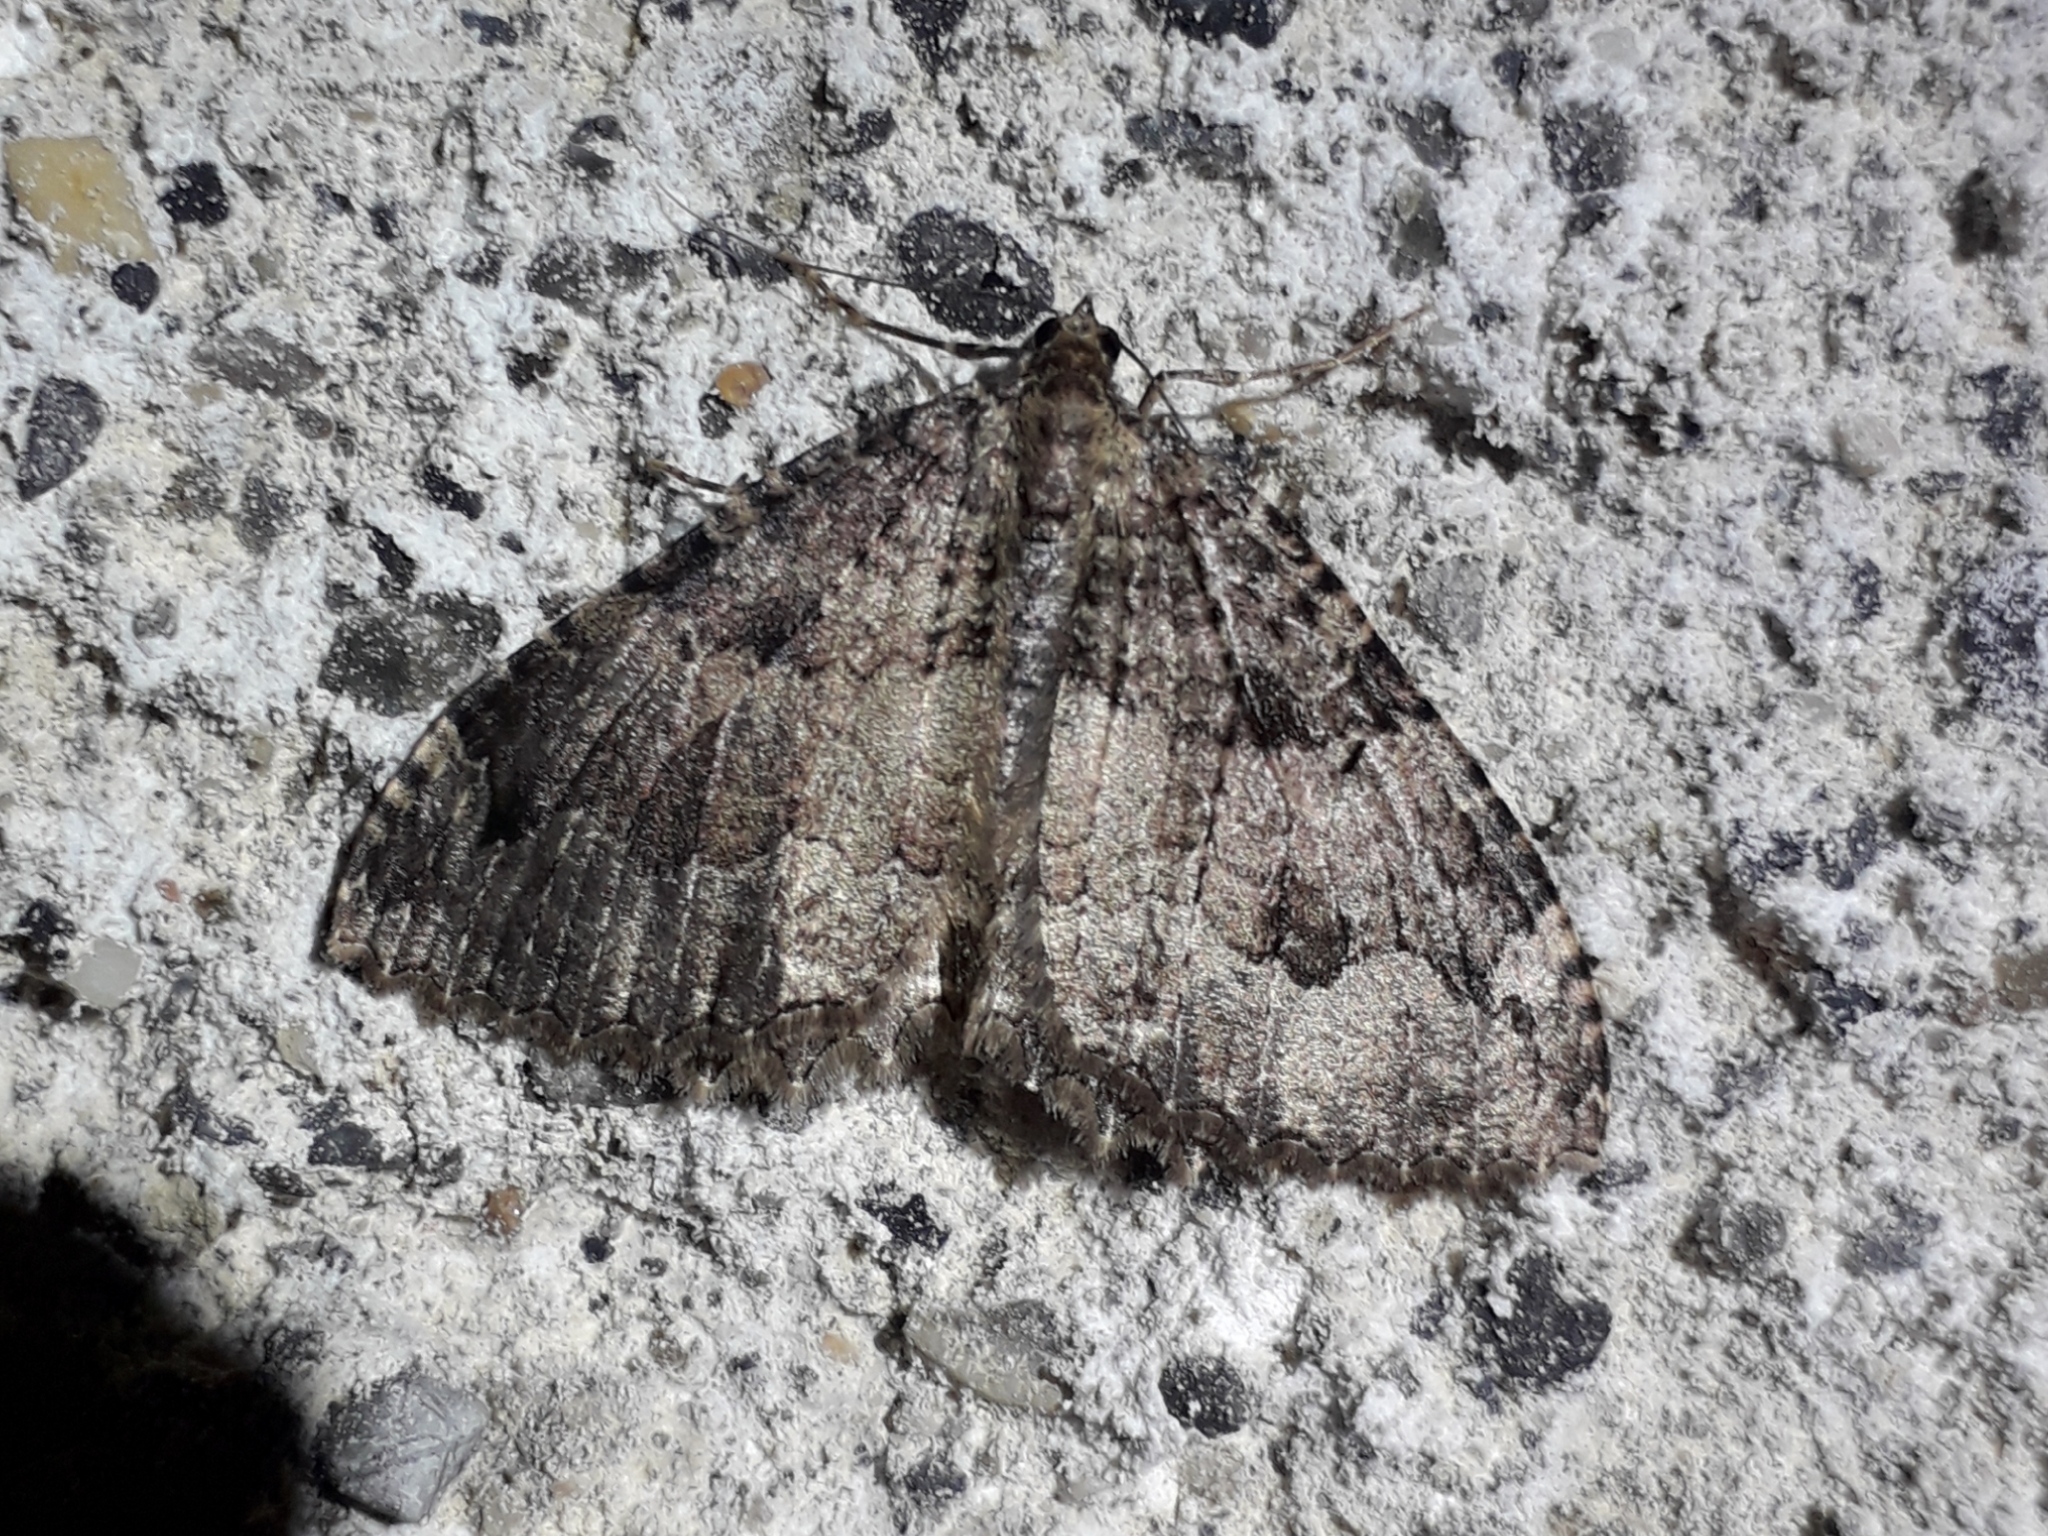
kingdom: Animalia
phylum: Arthropoda
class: Insecta
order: Lepidoptera
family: Geometridae
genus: Triphosa
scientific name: Triphosa dubitata
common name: Tissue
